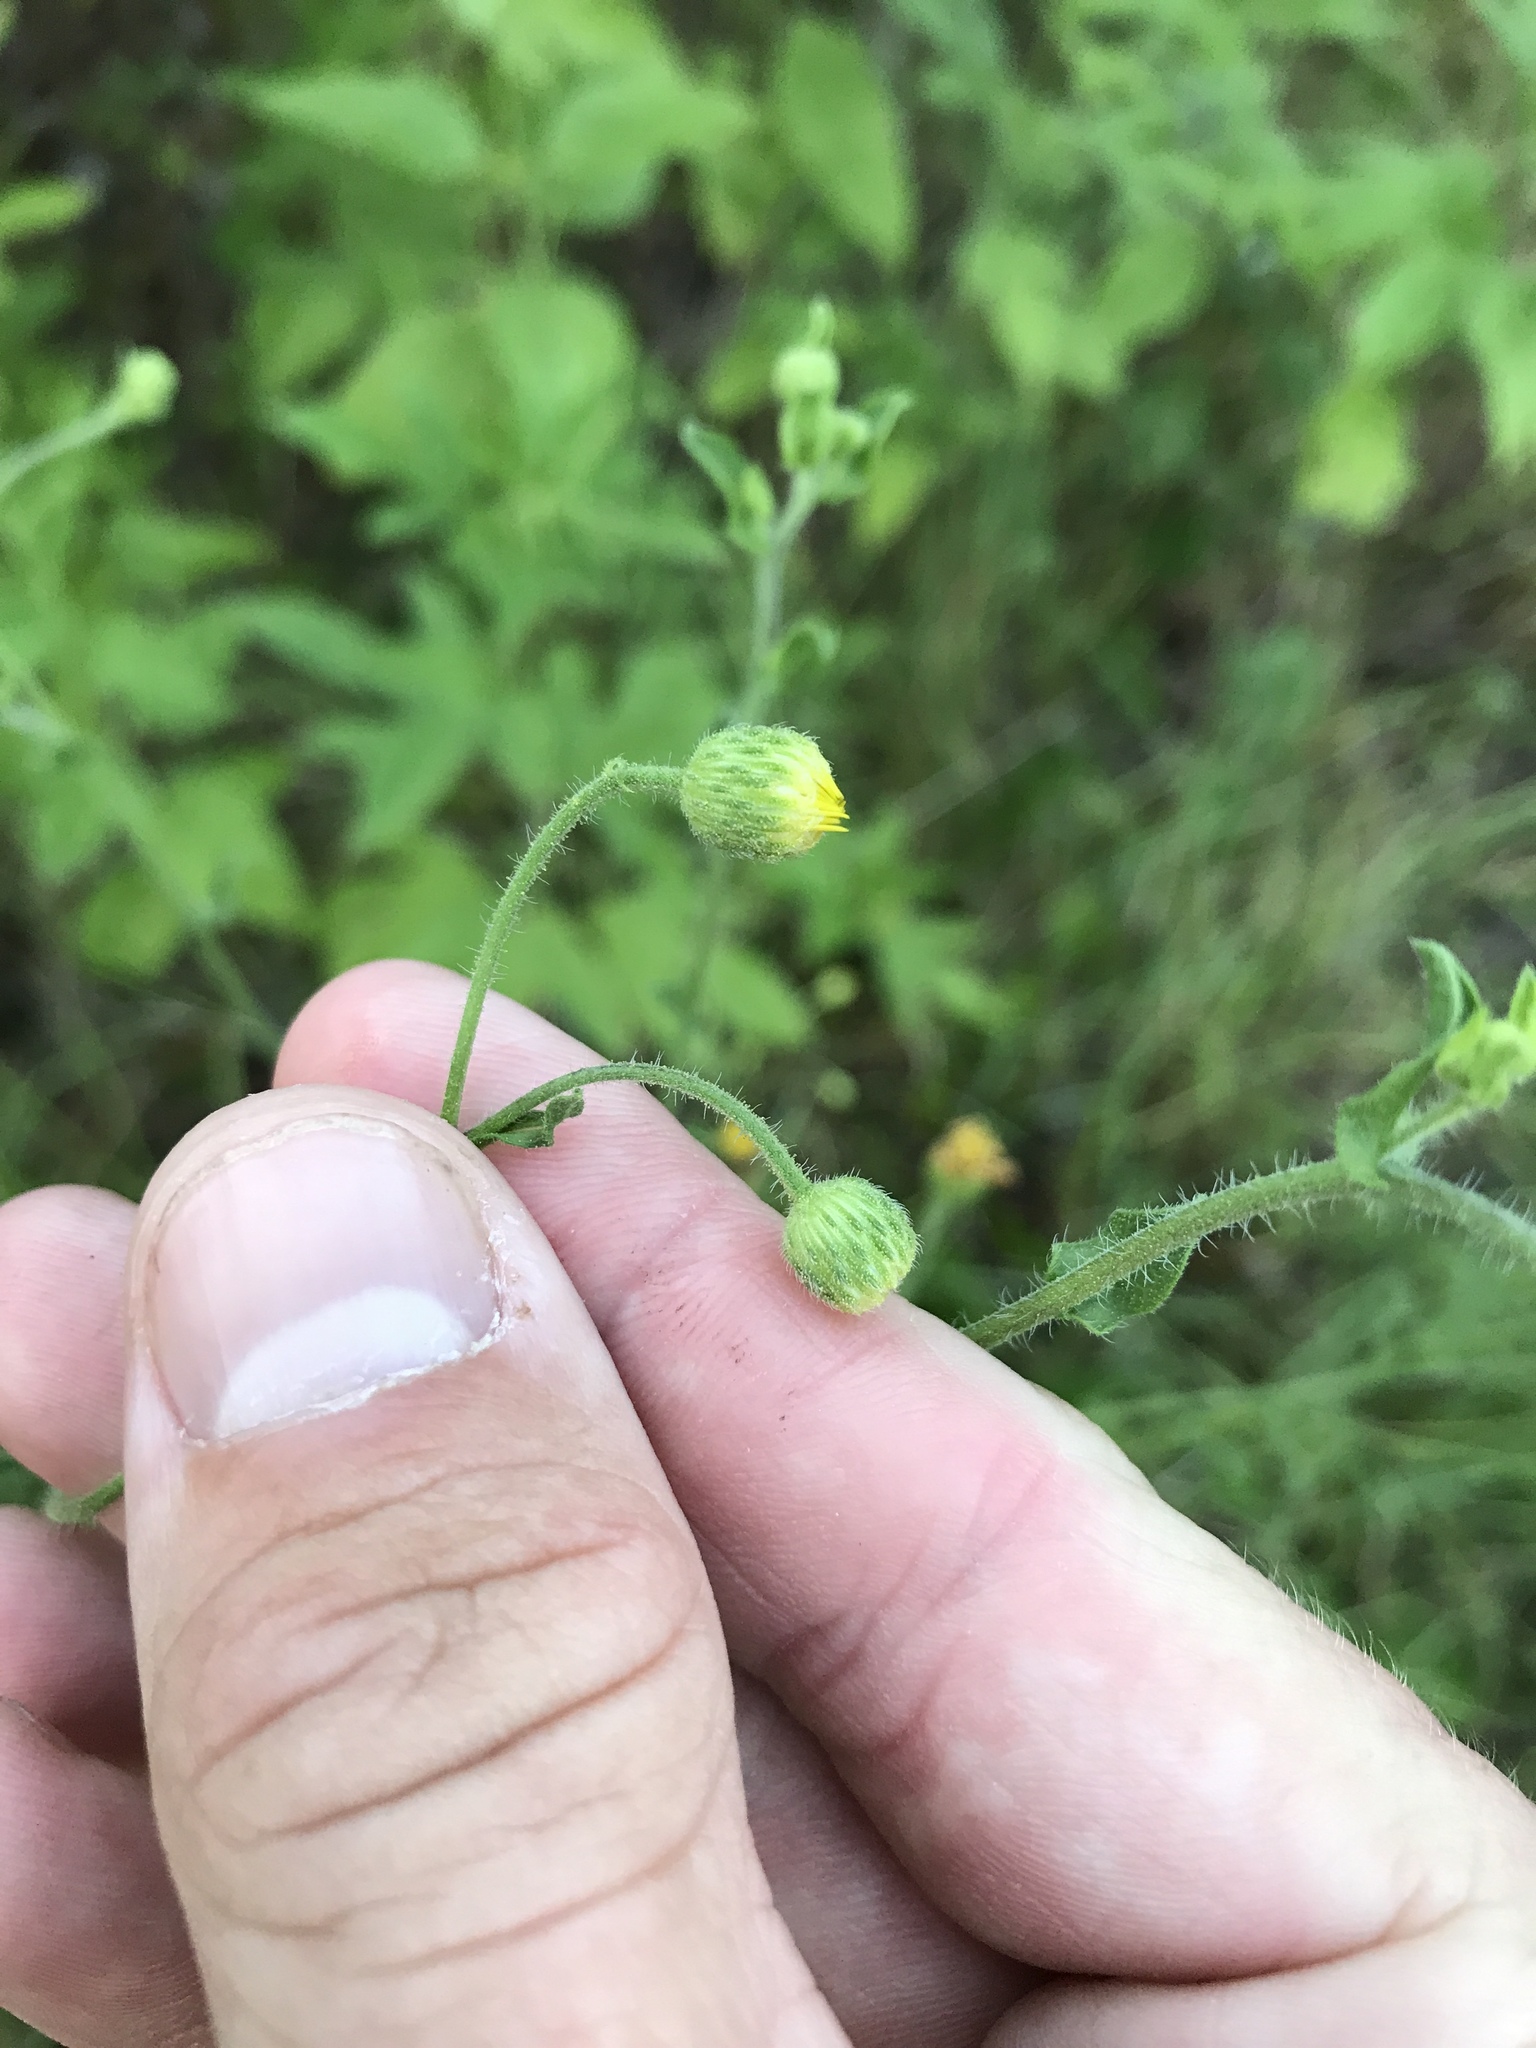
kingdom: Plantae
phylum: Tracheophyta
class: Magnoliopsida
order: Asterales
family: Asteraceae
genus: Heterotheca
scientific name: Heterotheca subaxillaris
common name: Camphorweed
